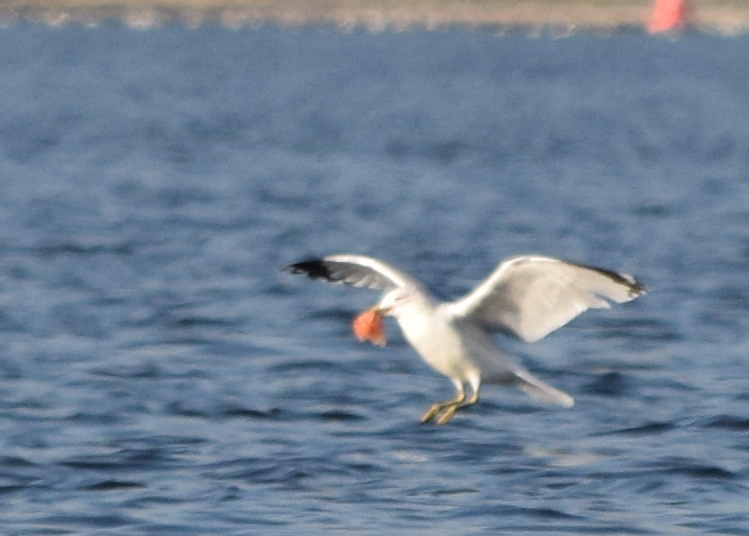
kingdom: Animalia
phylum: Chordata
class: Aves
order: Charadriiformes
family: Laridae
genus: Larus
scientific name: Larus delawarensis
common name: Ring-billed gull
